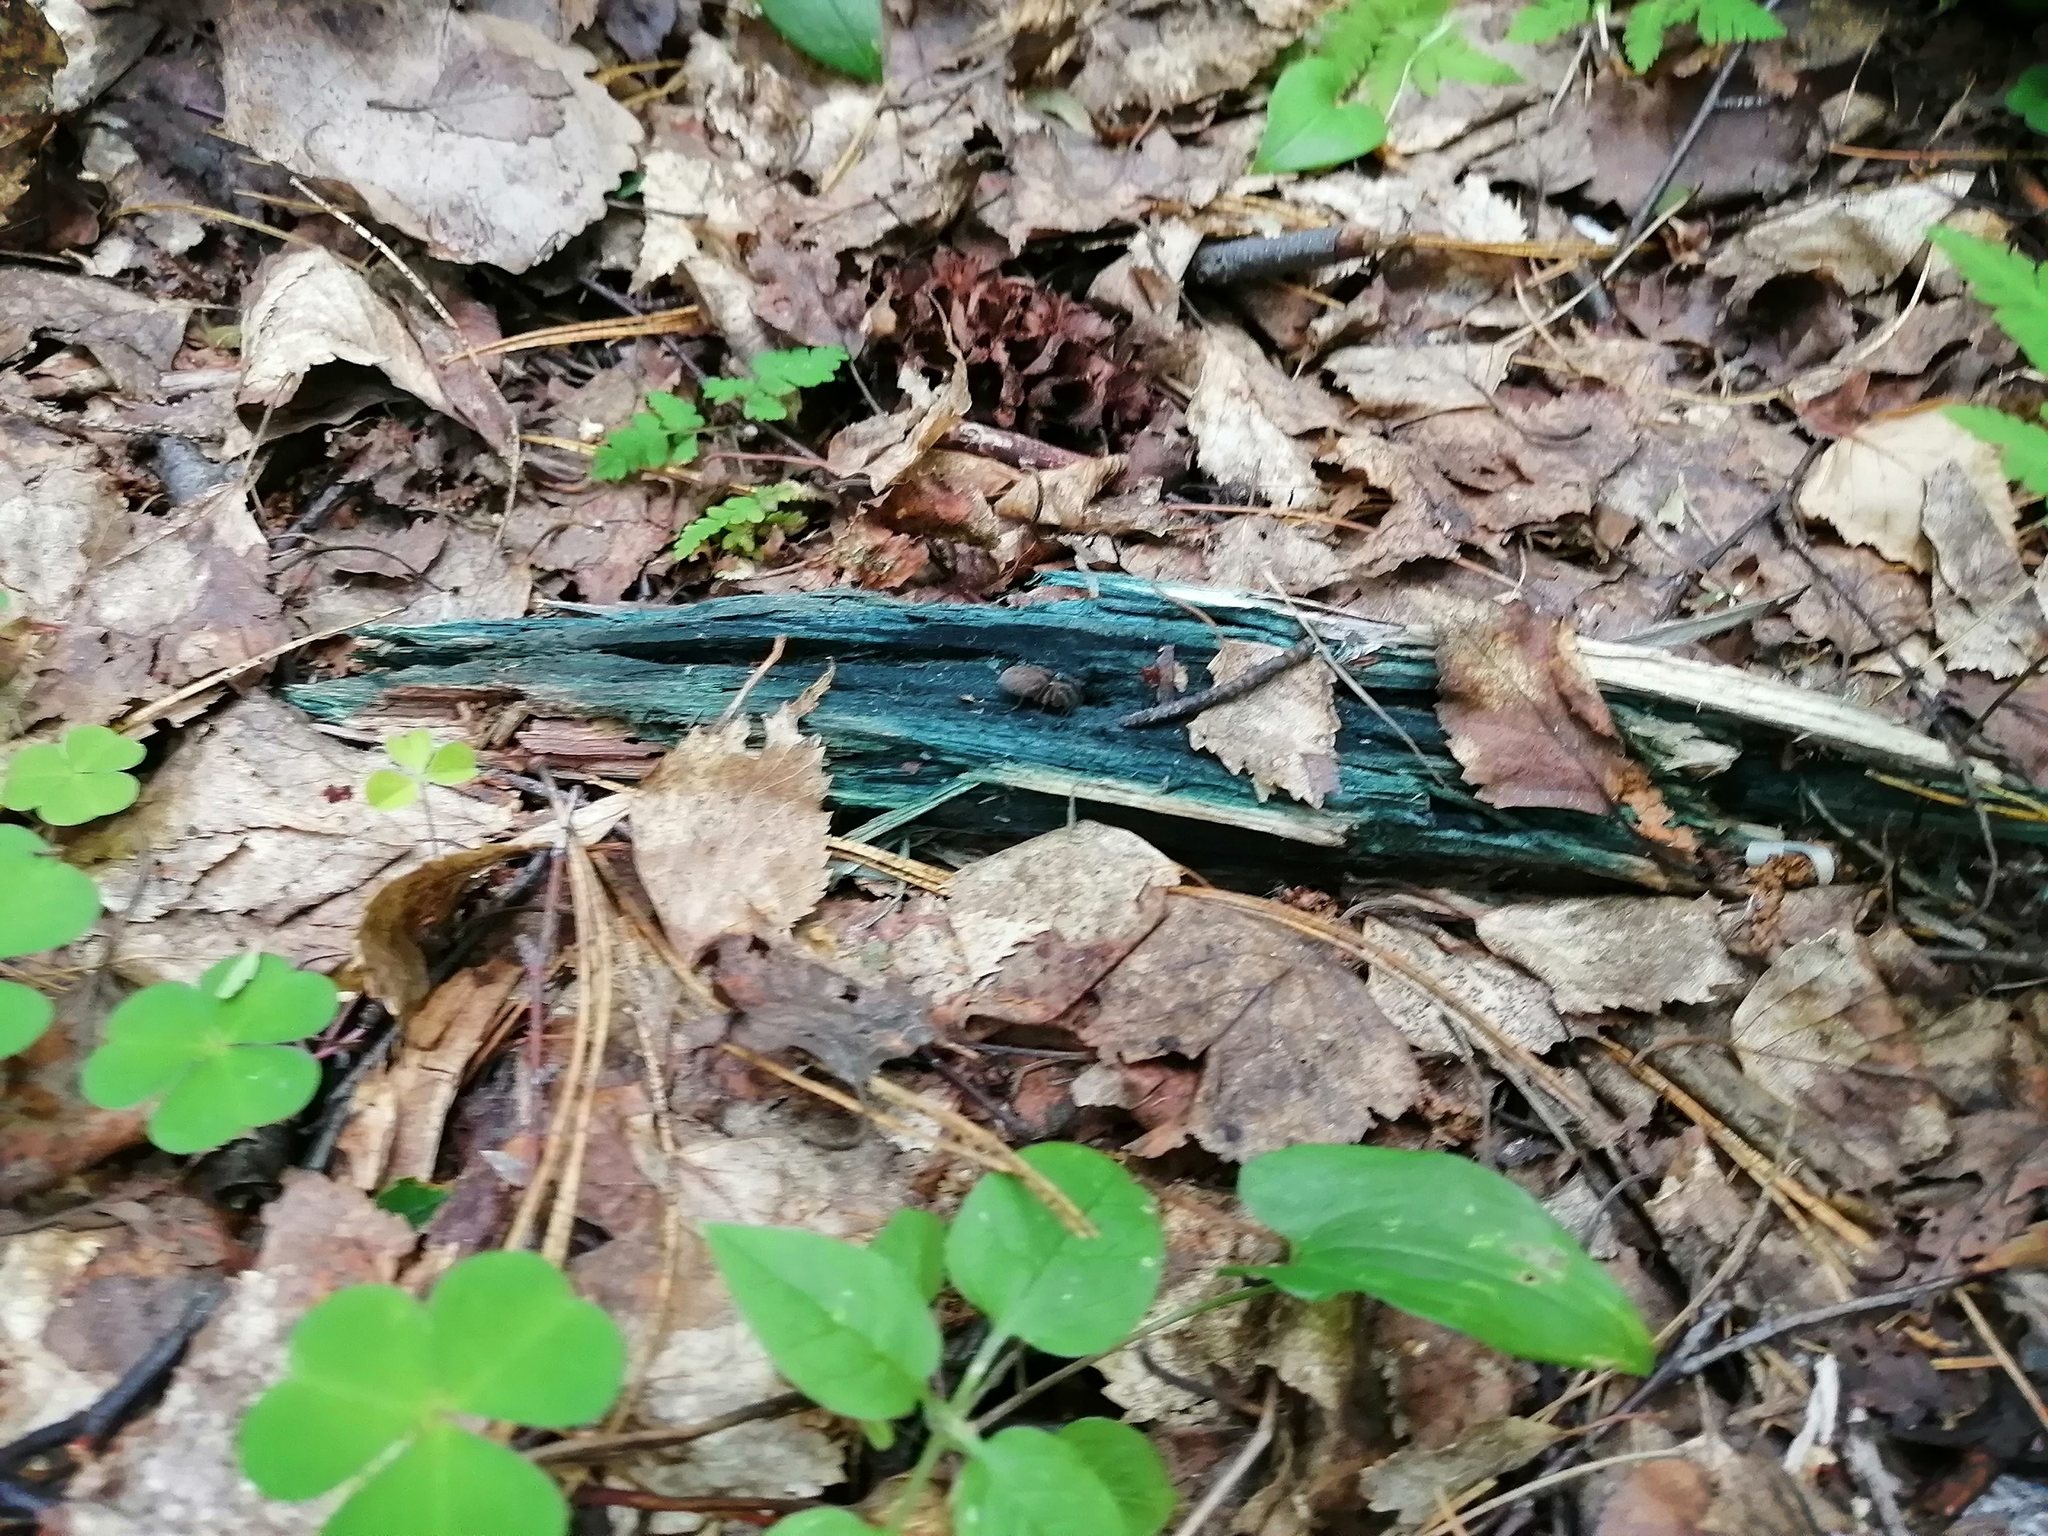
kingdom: Fungi
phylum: Ascomycota
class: Leotiomycetes
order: Helotiales
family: Chlorociboriaceae
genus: Chlorociboria
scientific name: Chlorociboria
